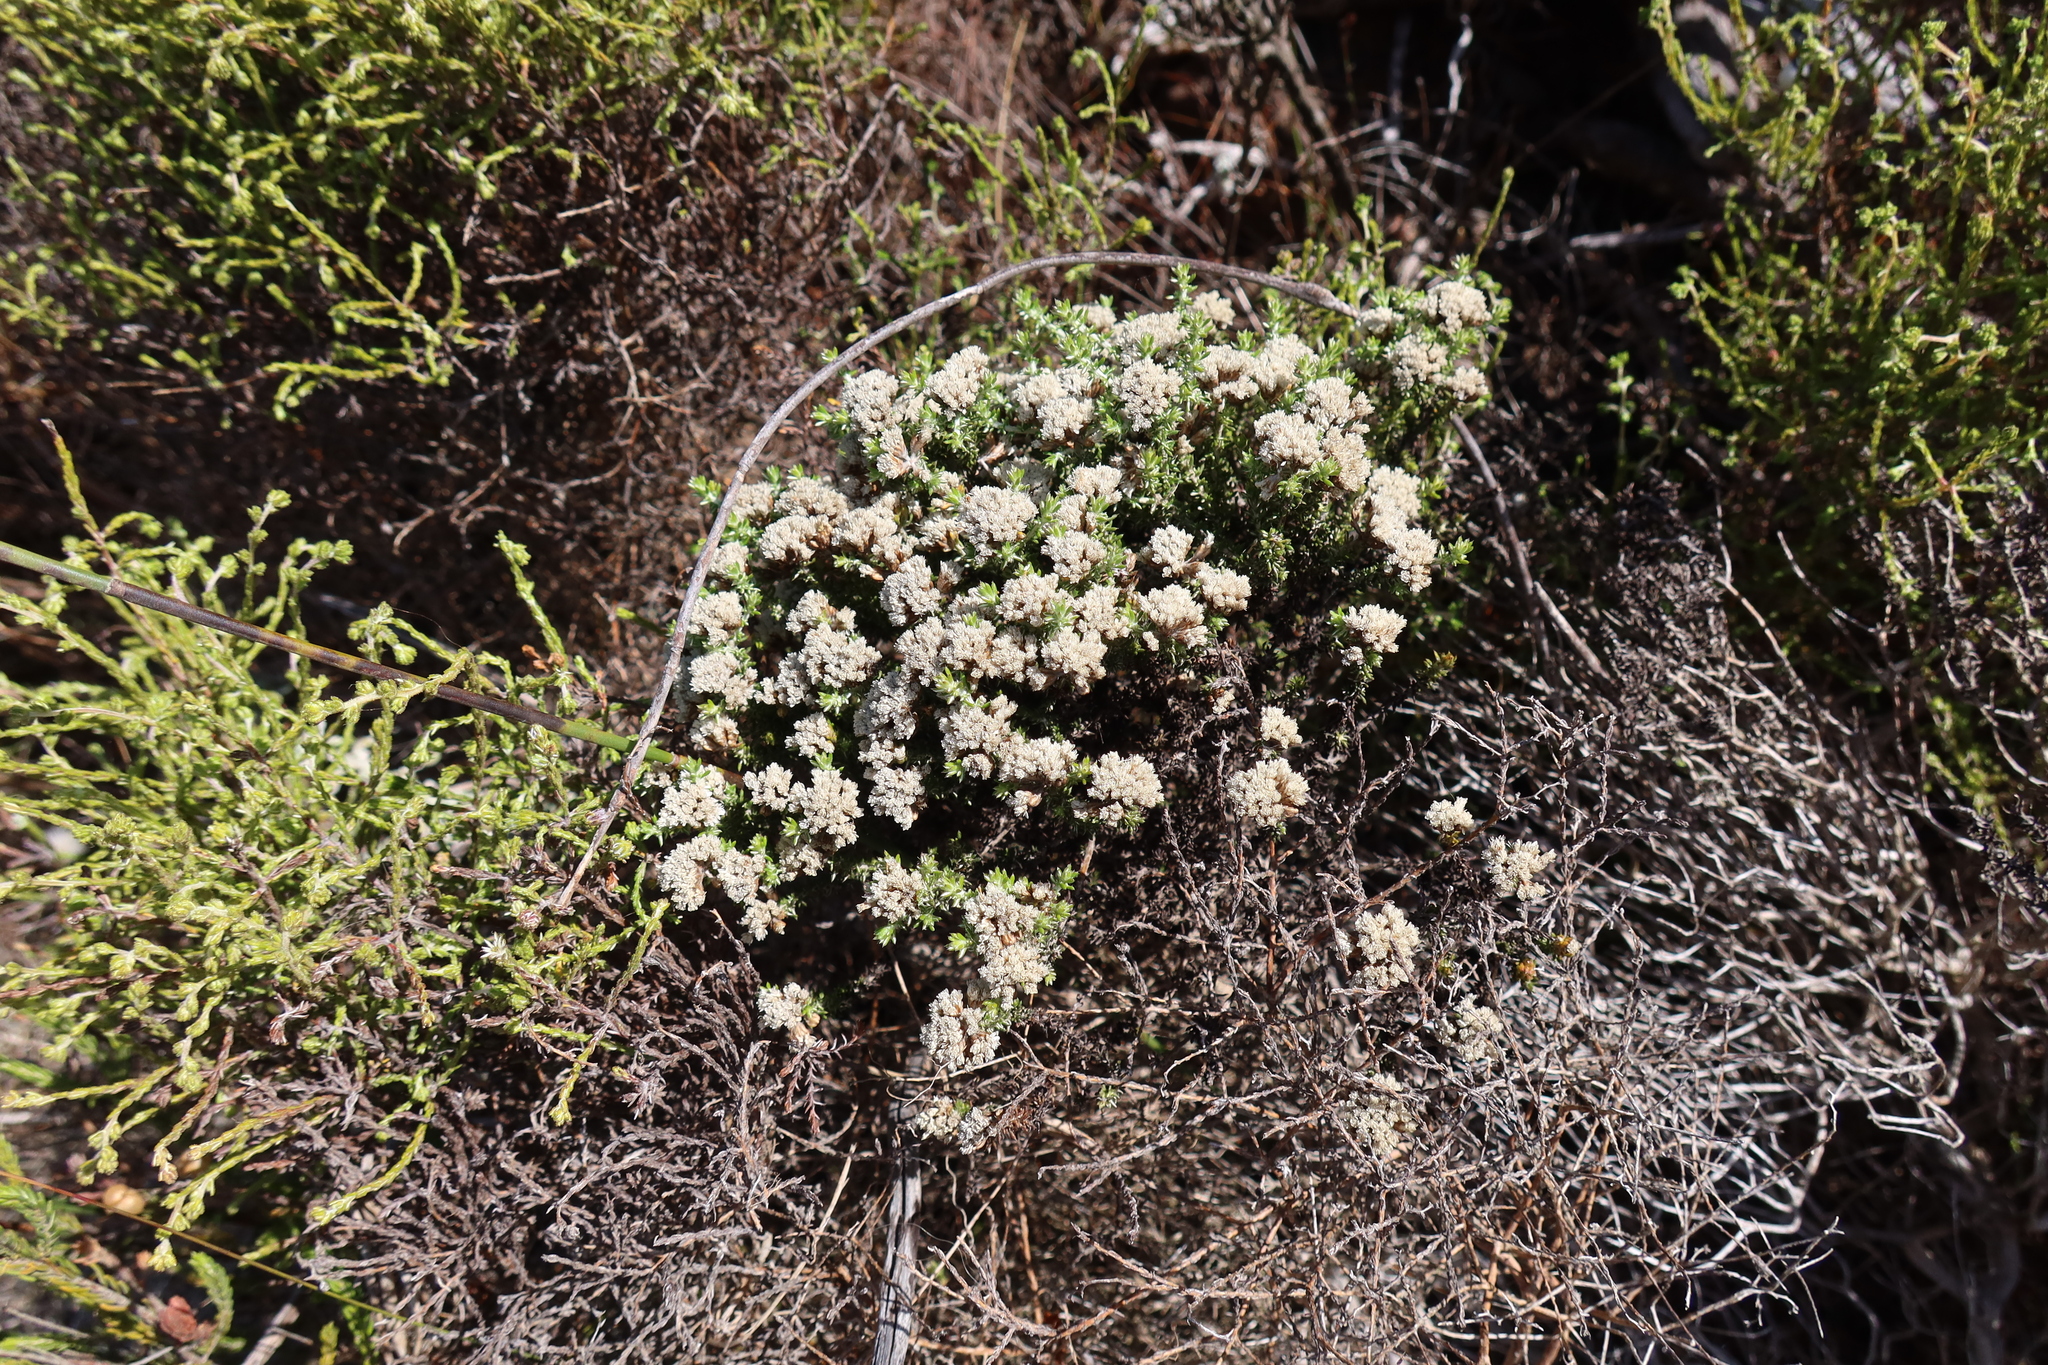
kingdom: Plantae
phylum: Tracheophyta
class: Magnoliopsida
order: Asterales
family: Asteraceae
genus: Metalasia
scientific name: Metalasia divergens
